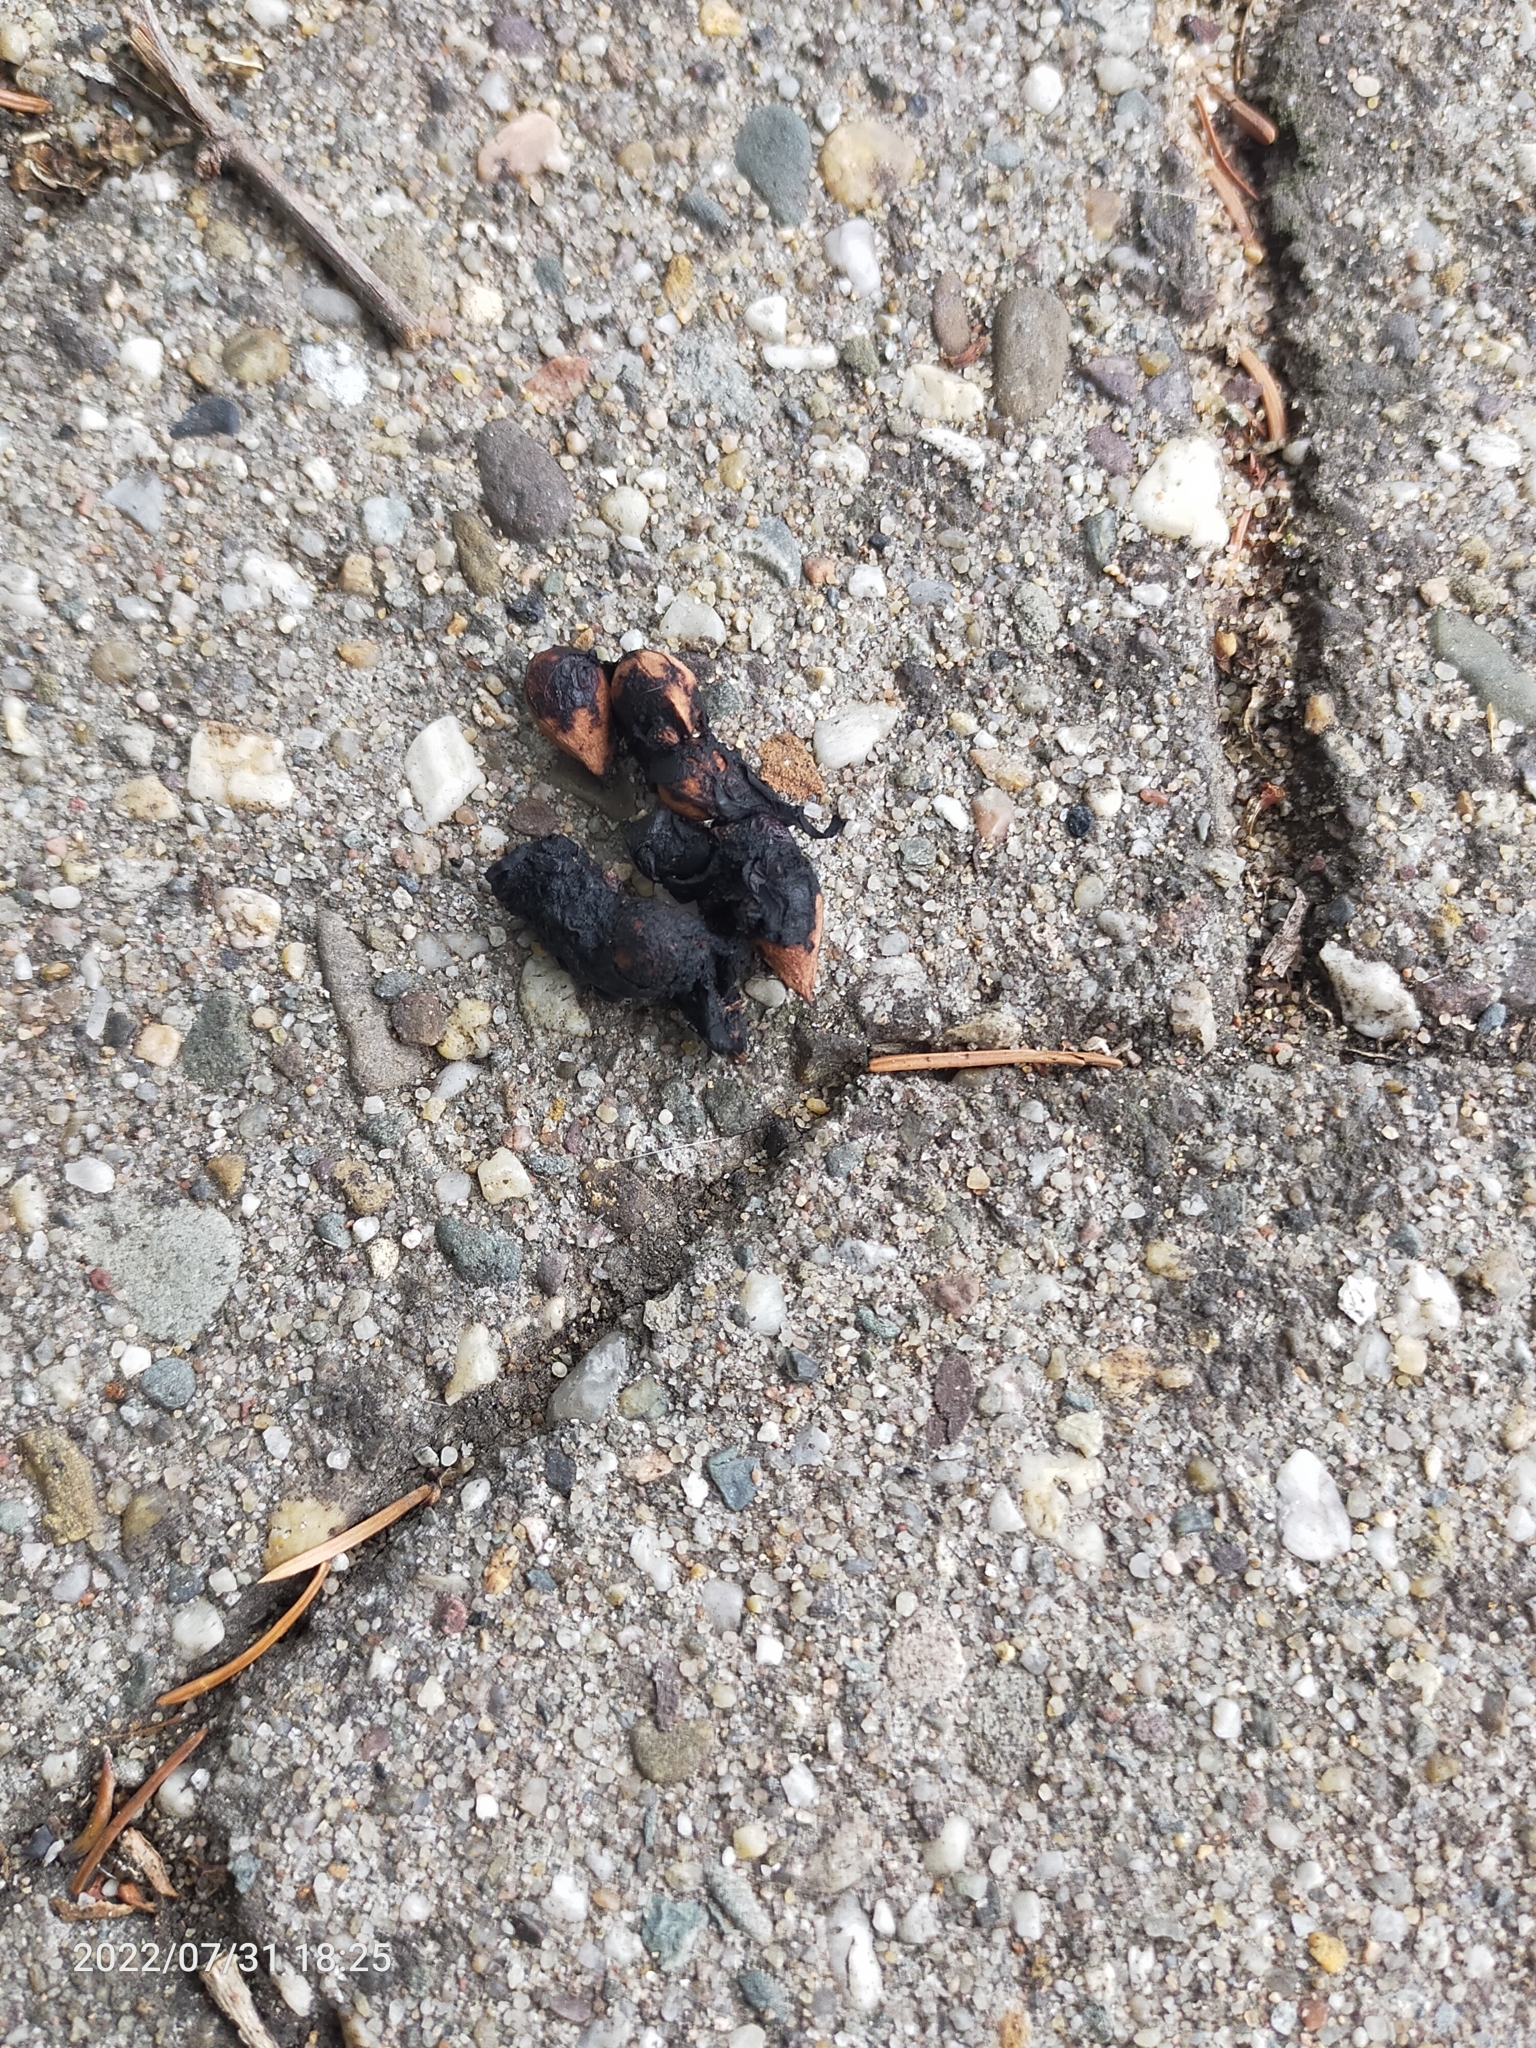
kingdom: Animalia
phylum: Chordata
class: Mammalia
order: Carnivora
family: Mustelidae
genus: Martes
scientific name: Martes foina
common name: Beech marten
